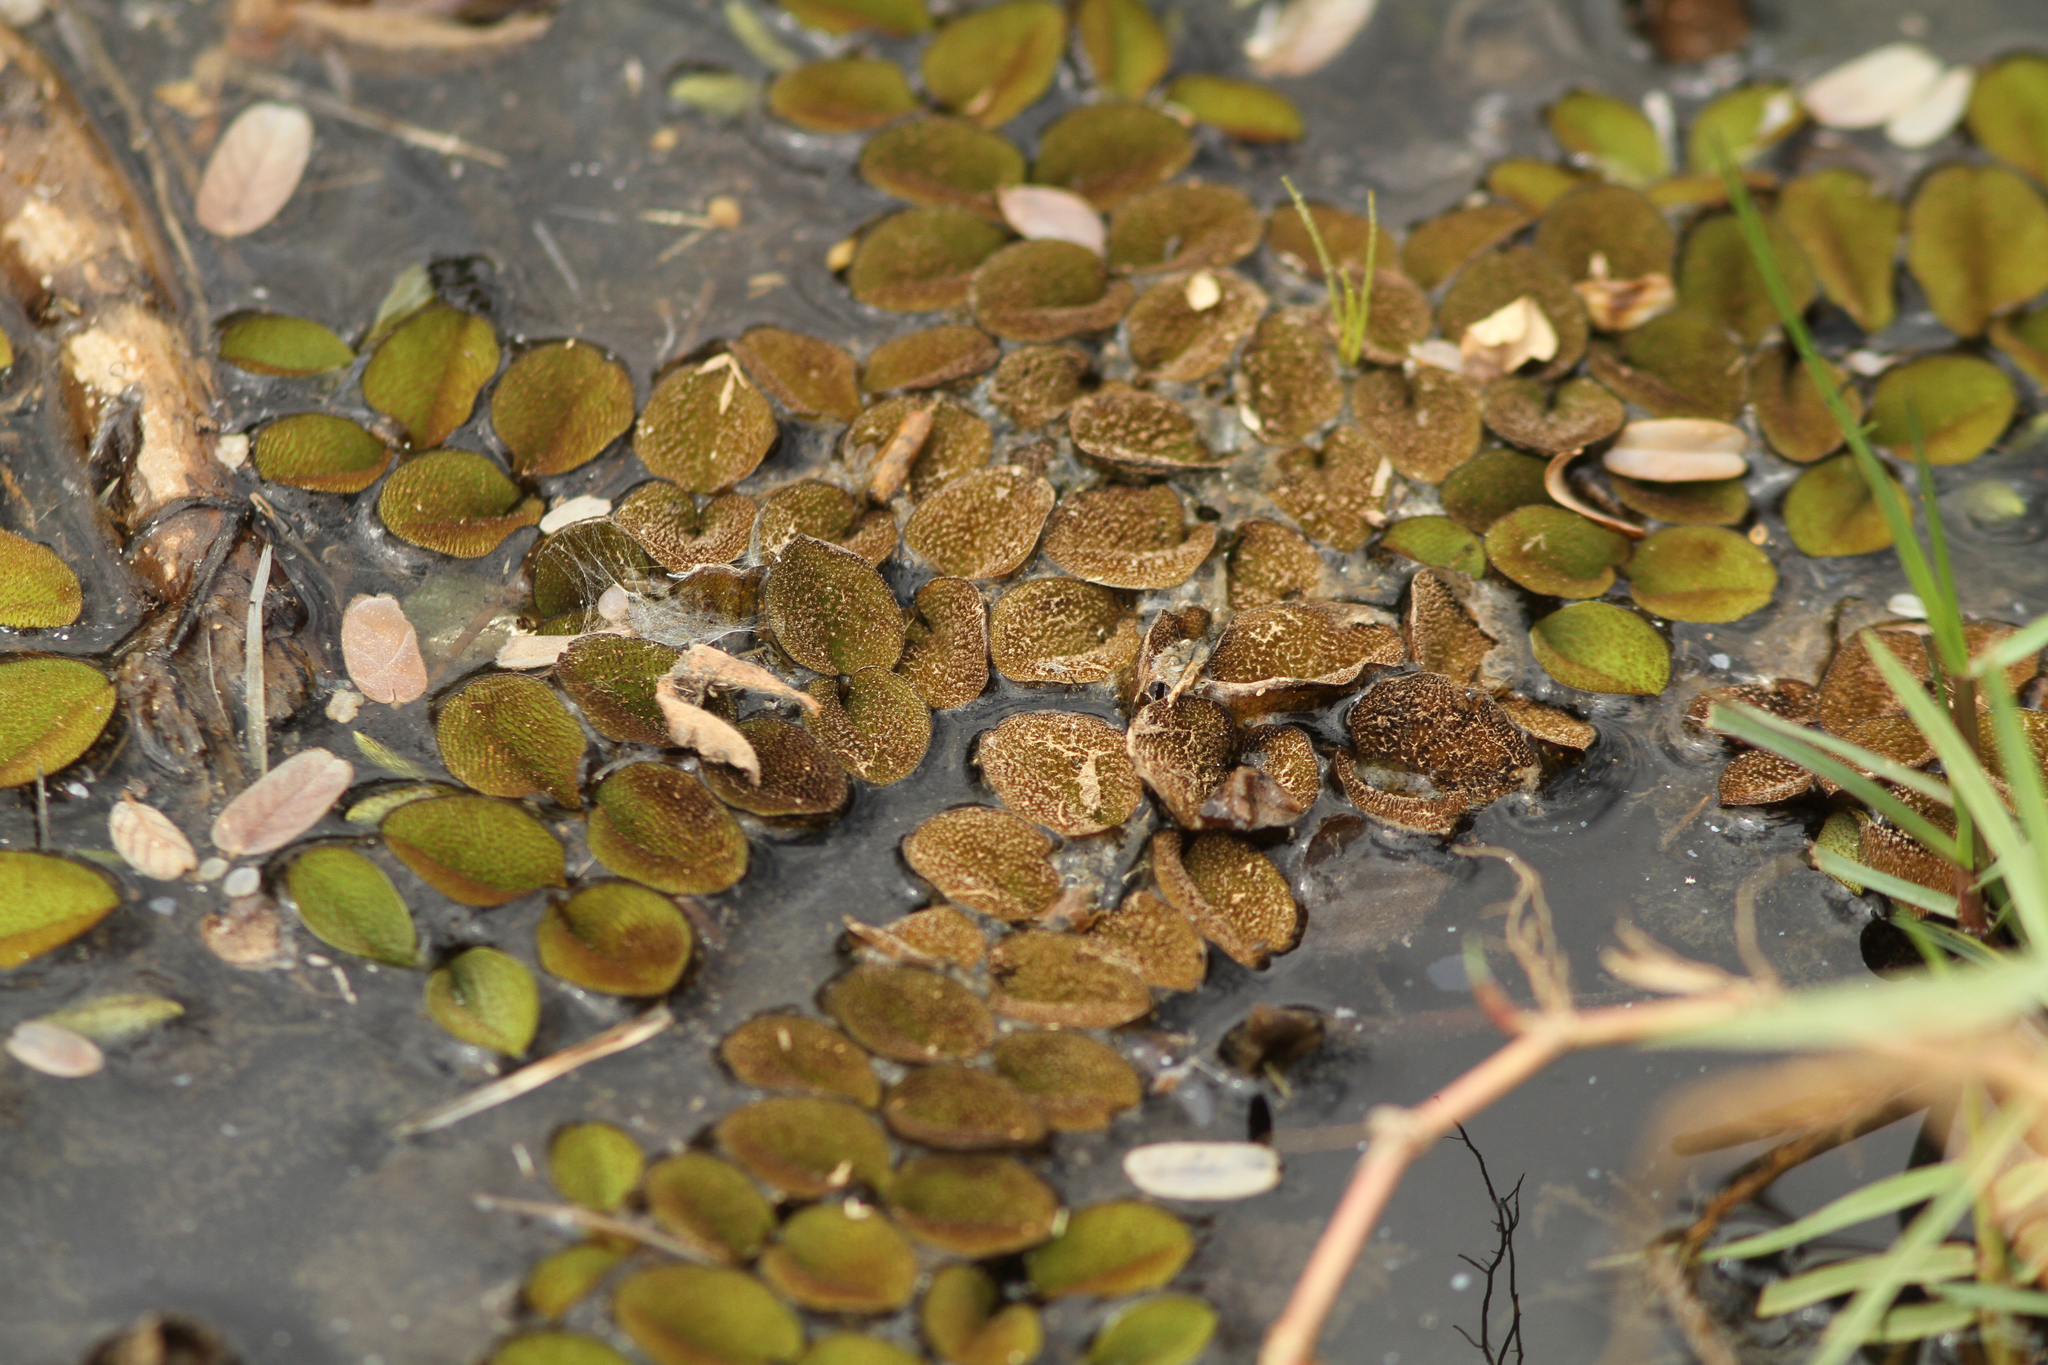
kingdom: Plantae
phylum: Tracheophyta
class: Polypodiopsida
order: Salviniales
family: Salviniaceae
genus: Salvinia
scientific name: Salvinia molesta
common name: Kariba weed
